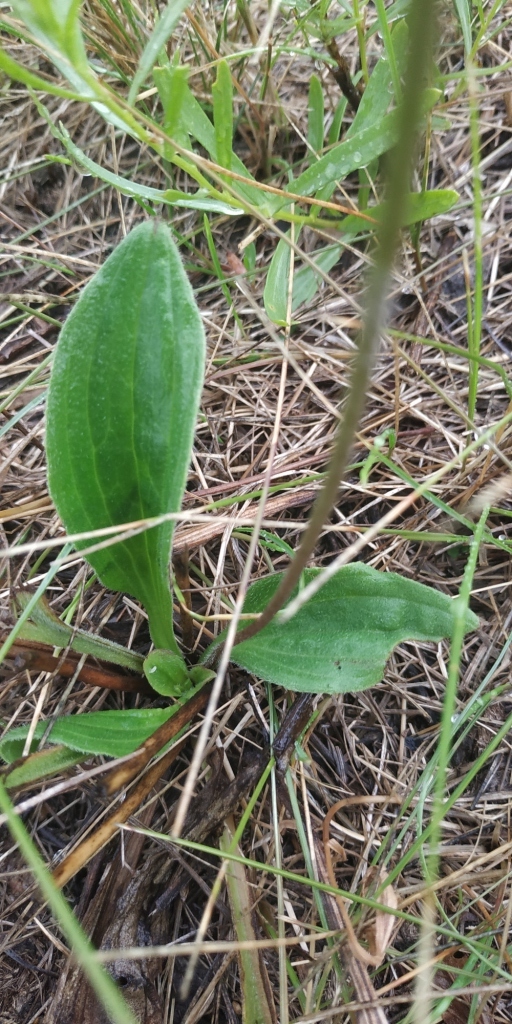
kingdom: Plantae
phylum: Tracheophyta
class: Magnoliopsida
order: Lamiales
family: Plantaginaceae
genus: Plantago
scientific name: Plantago media
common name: Hoary plantain
